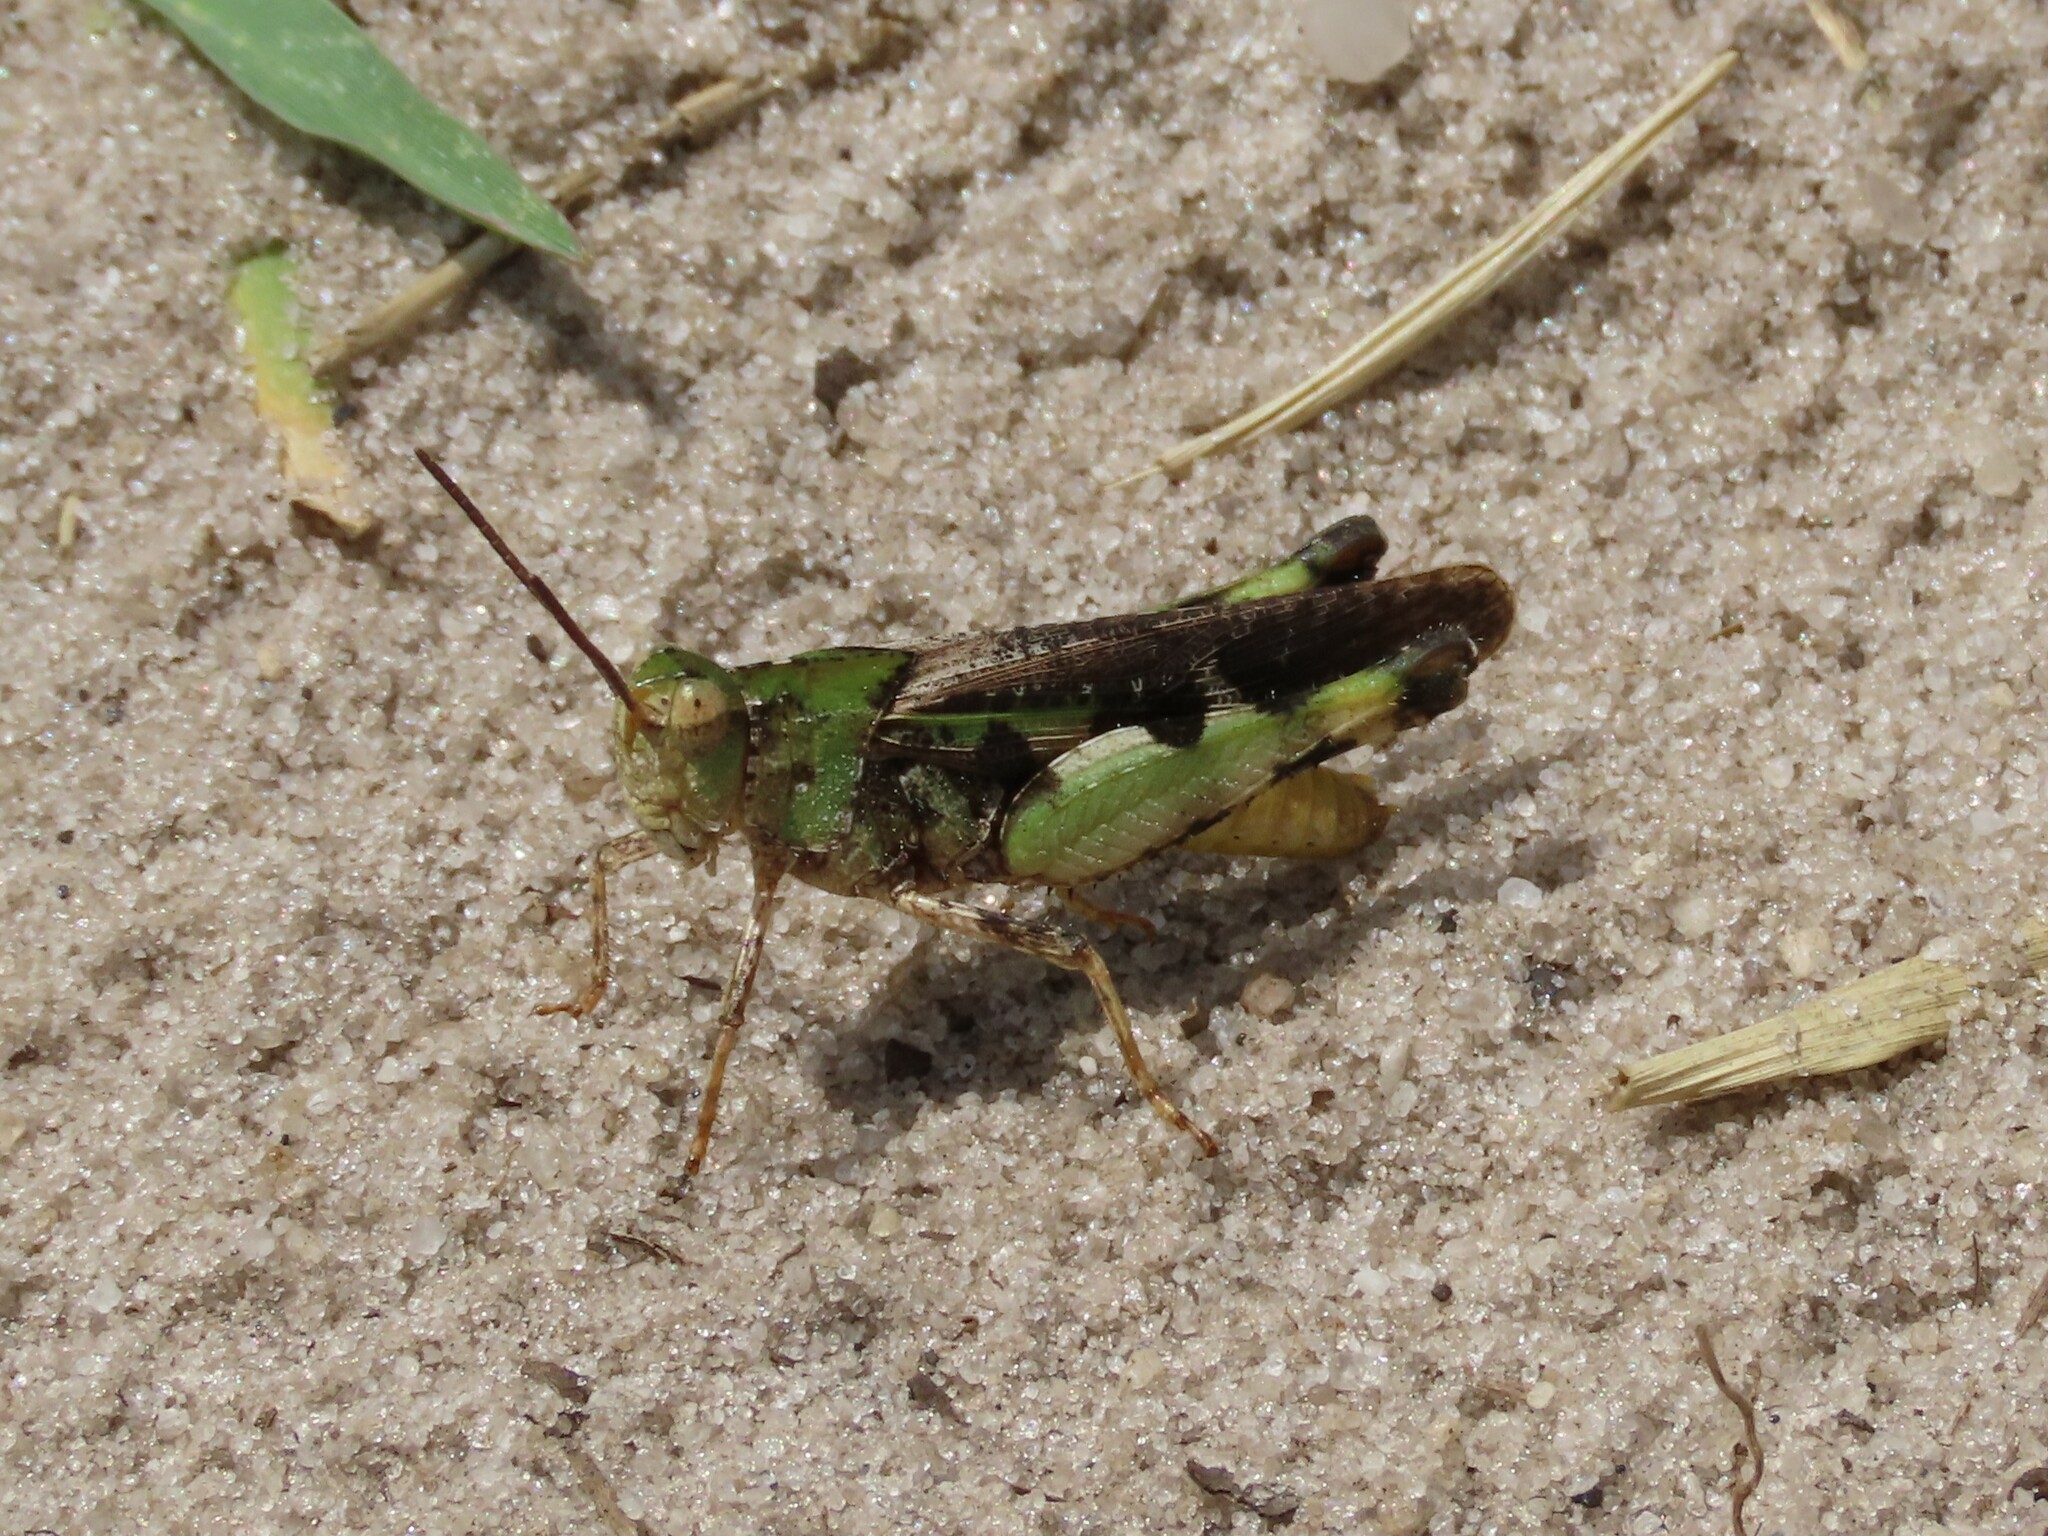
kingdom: Animalia
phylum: Arthropoda
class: Insecta
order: Orthoptera
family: Acrididae
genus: Chortophaga
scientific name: Chortophaga australior
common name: Southern green-striped grasshopper
